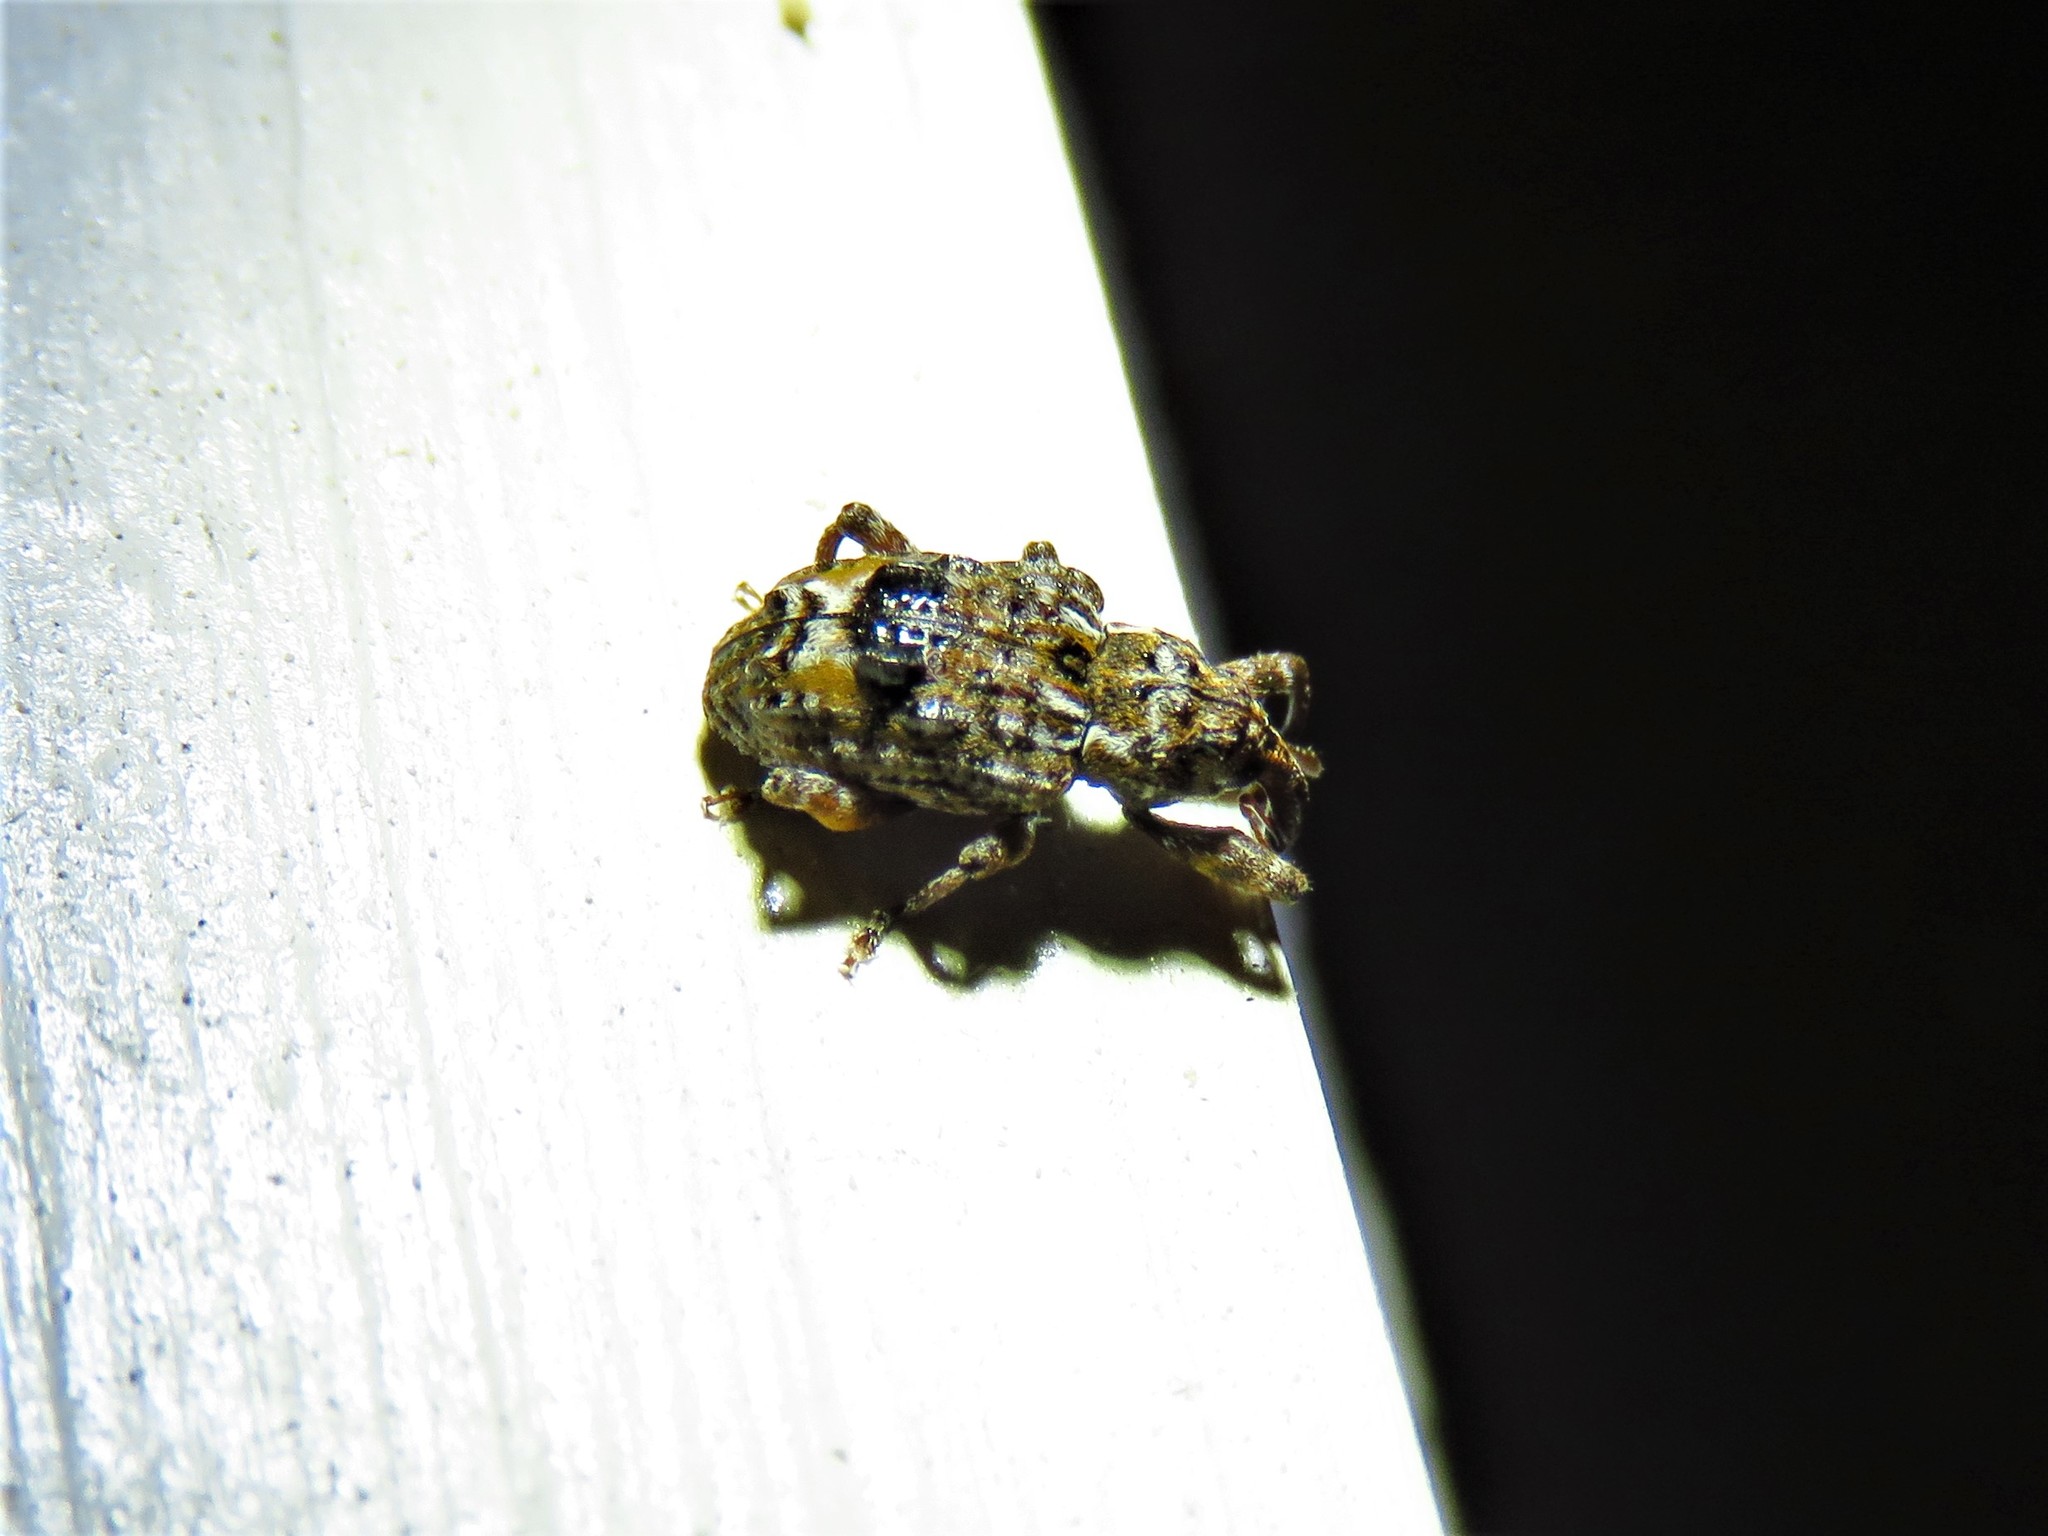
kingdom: Animalia
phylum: Arthropoda
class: Insecta
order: Coleoptera
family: Curculionidae
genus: Conotrachelus
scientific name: Conotrachelus nenuphar
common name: Plum curculio
